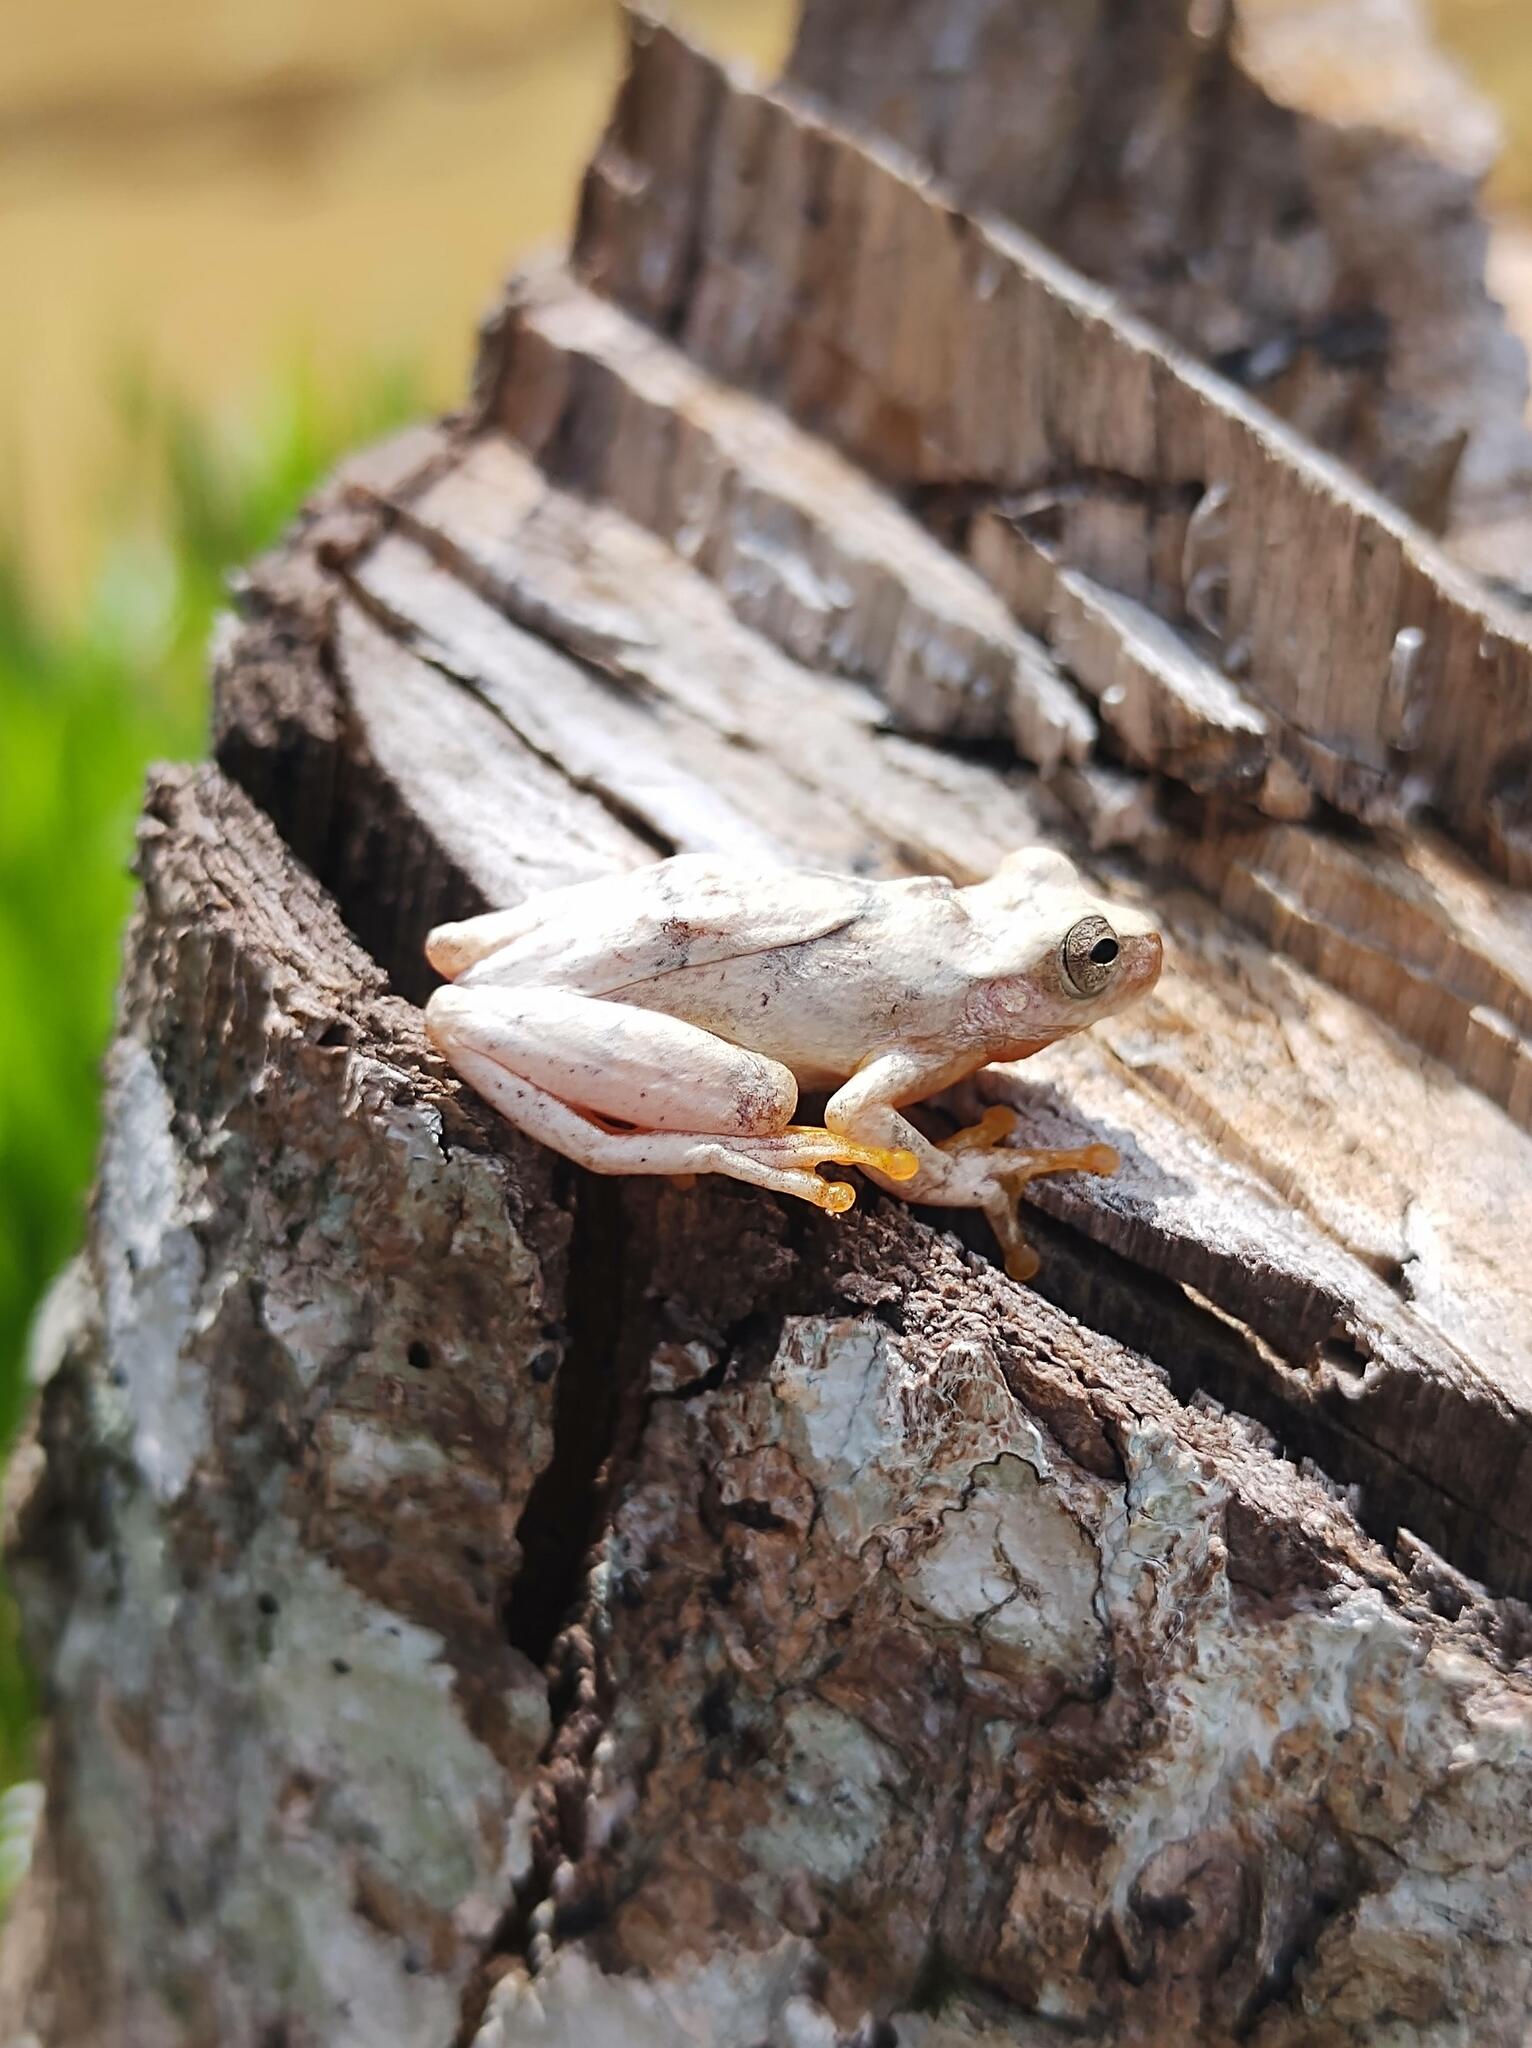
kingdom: Animalia
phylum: Chordata
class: Amphibia
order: Anura
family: Hylidae
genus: Tlalocohyla
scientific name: Tlalocohyla smithii
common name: Dwarf mexican treefrog
